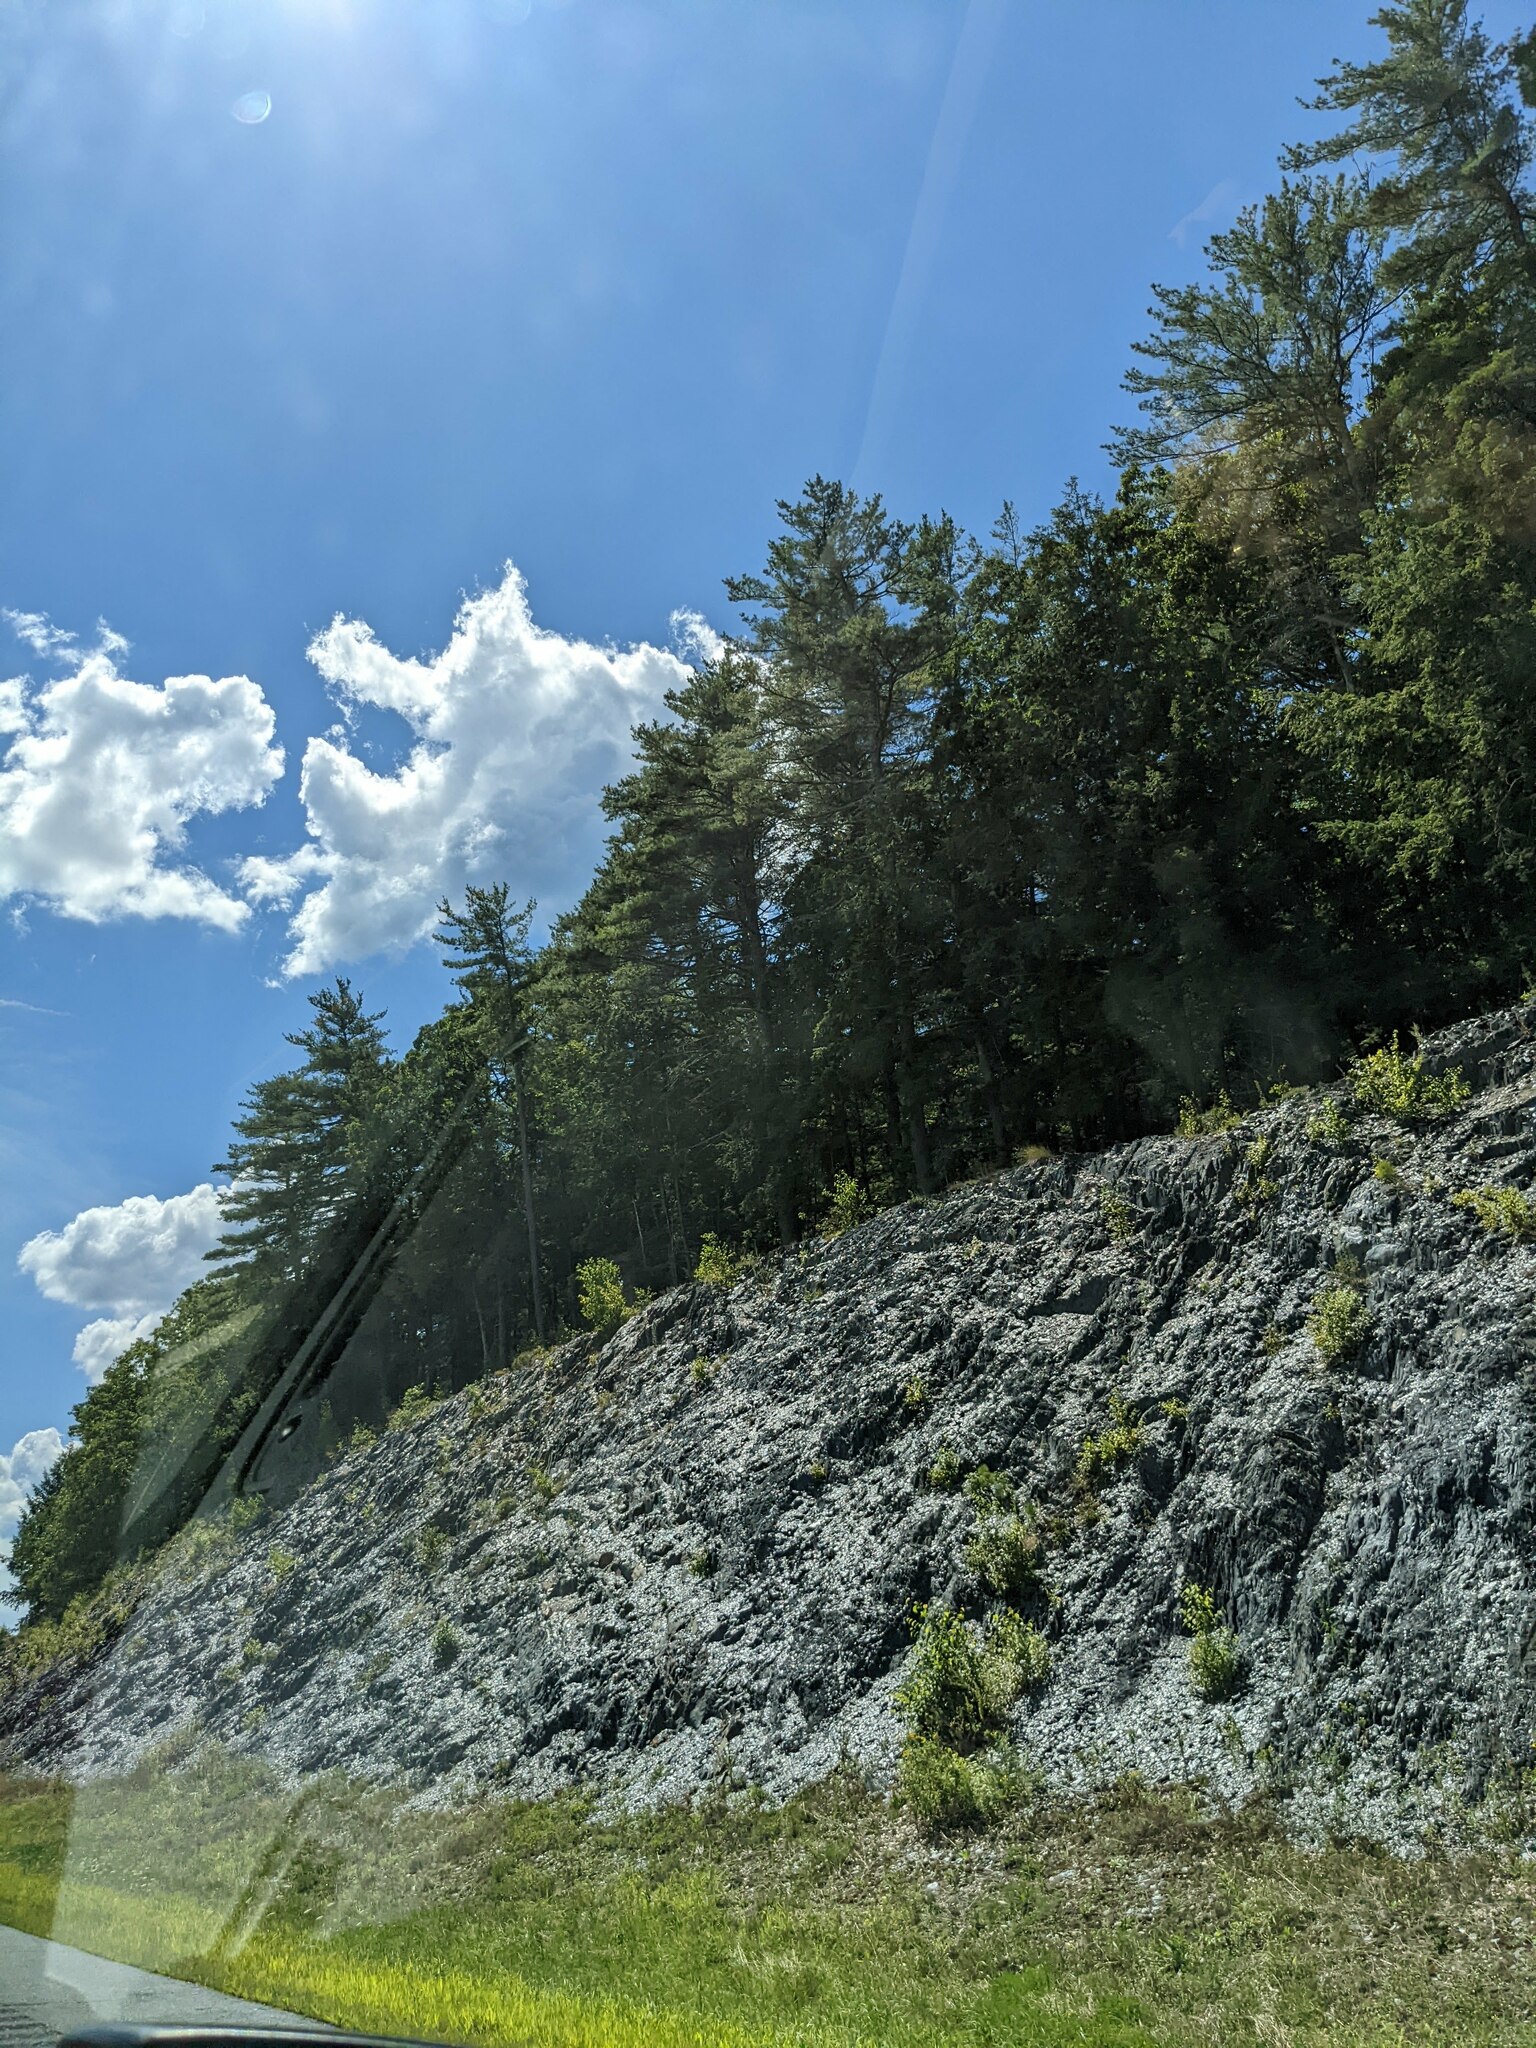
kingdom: Plantae
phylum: Tracheophyta
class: Pinopsida
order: Pinales
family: Pinaceae
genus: Pinus
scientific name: Pinus strobus
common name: Weymouth pine
